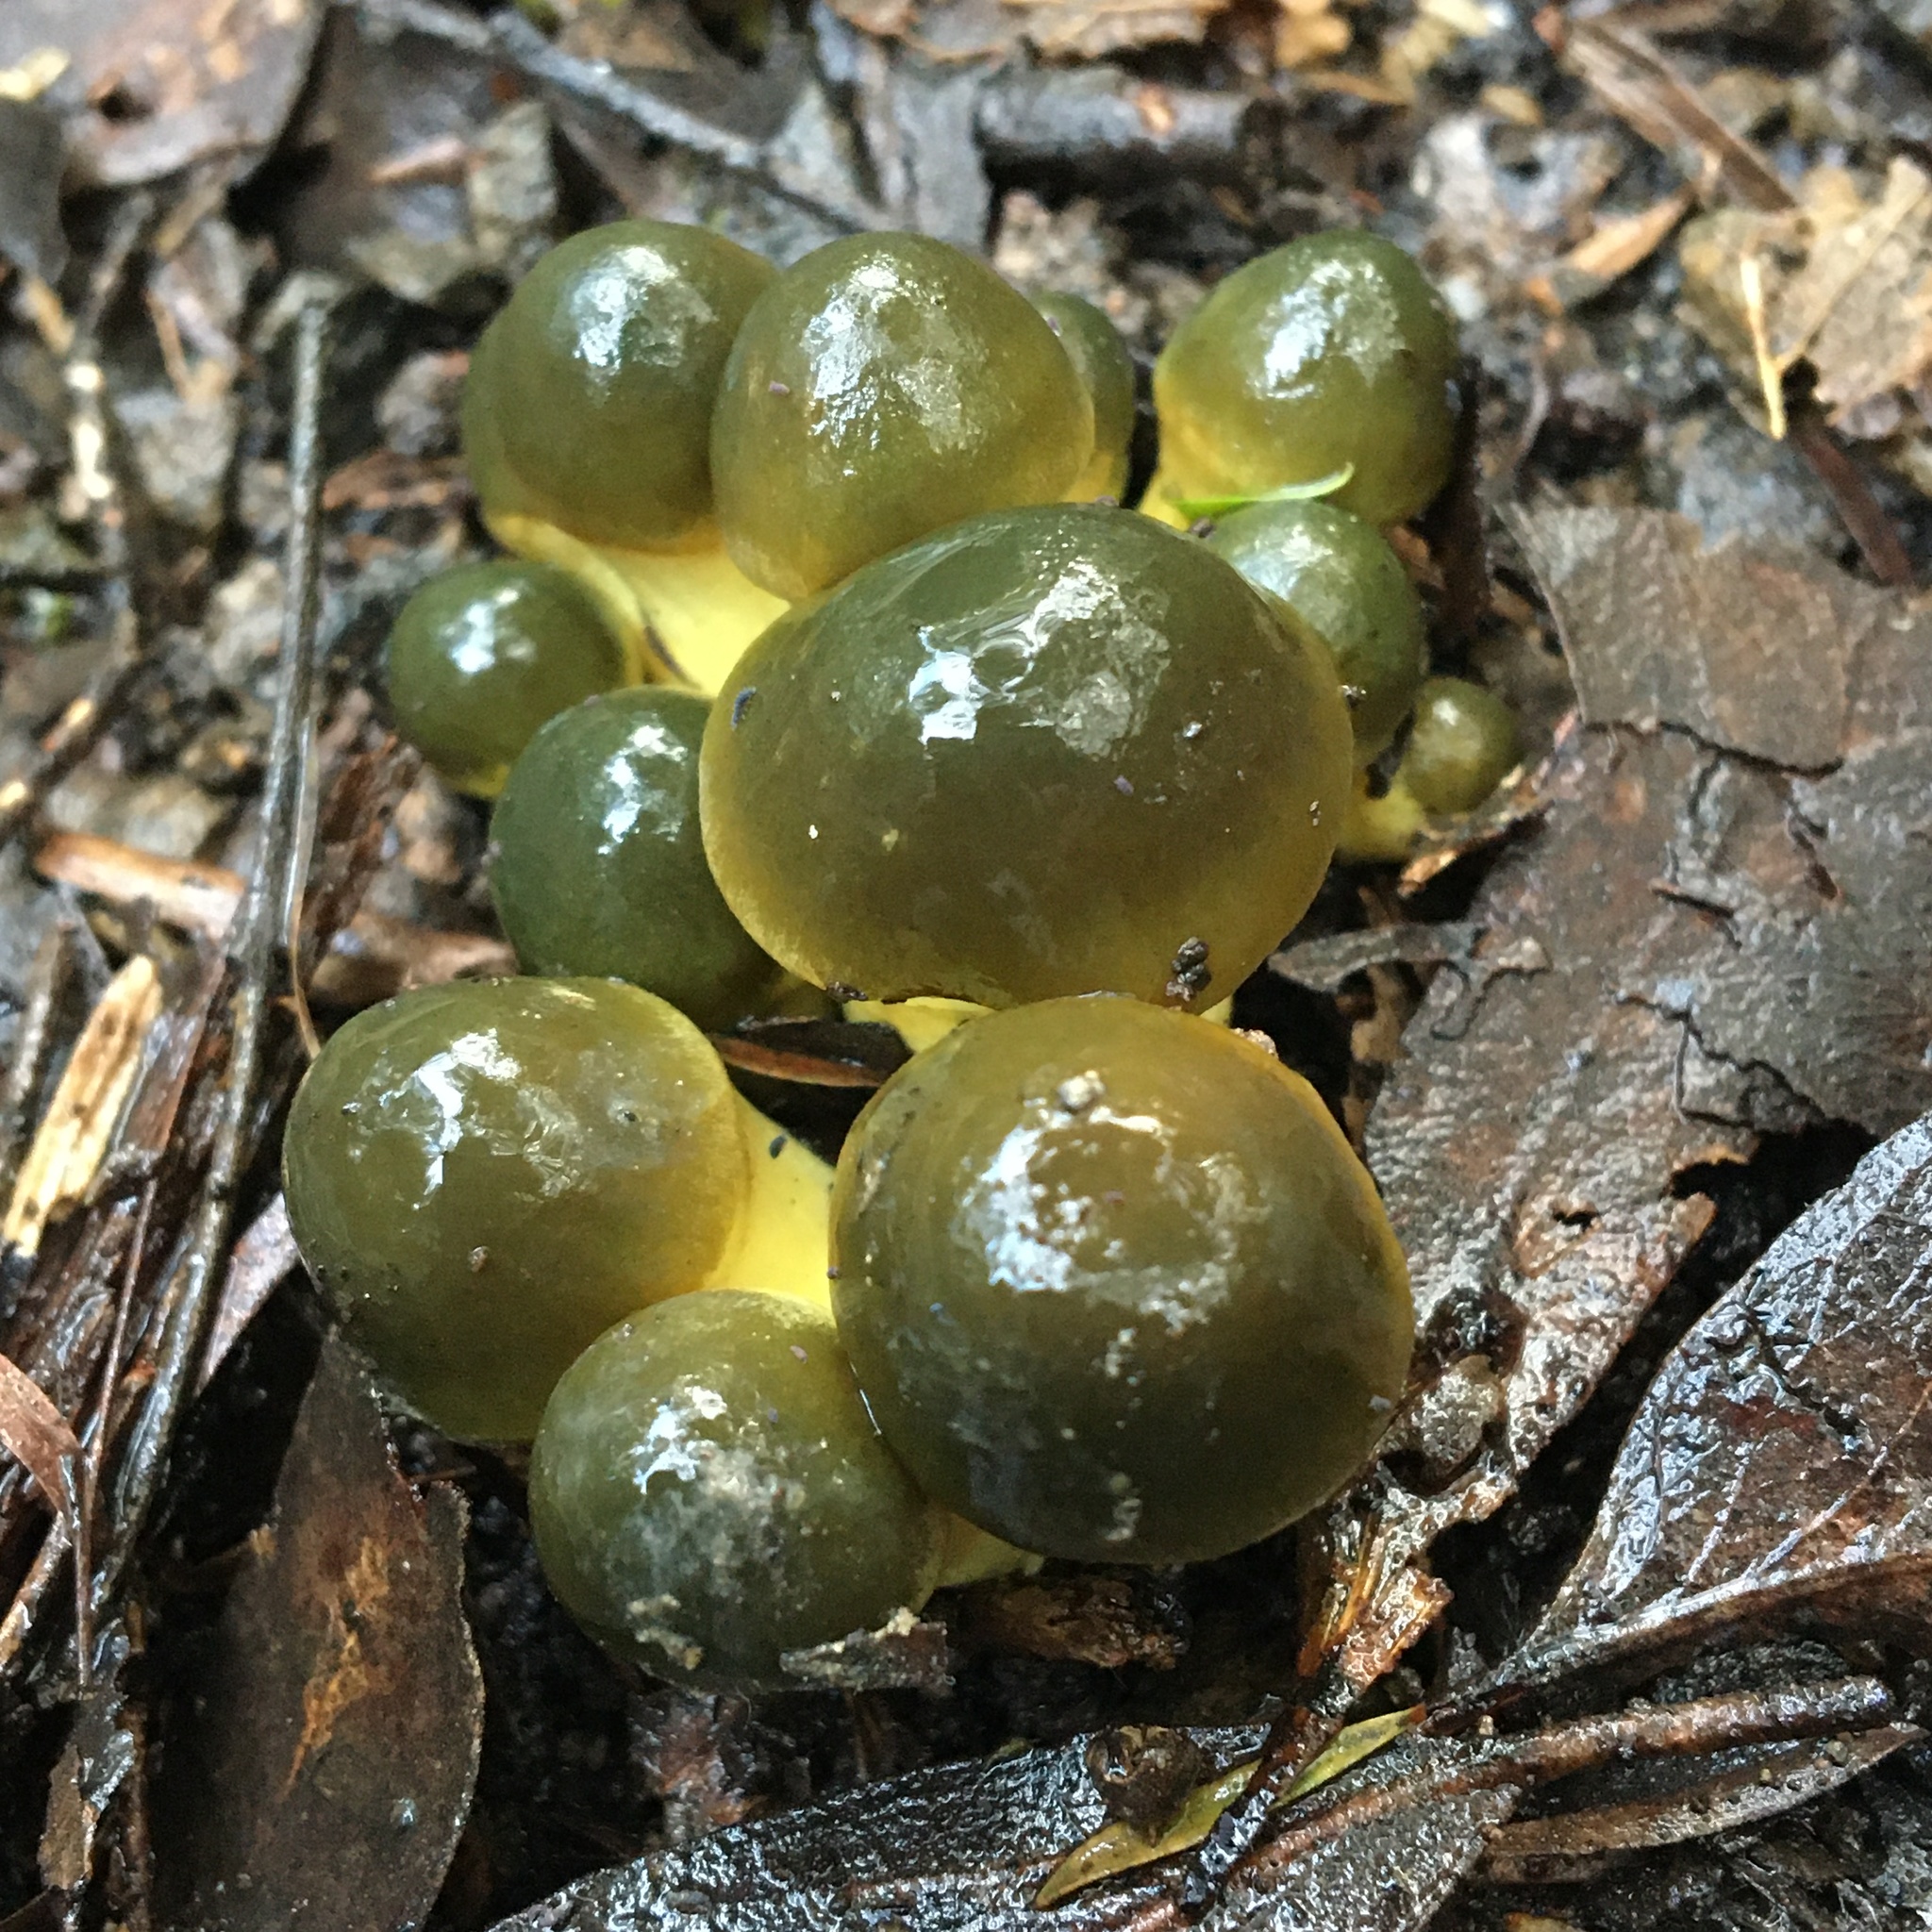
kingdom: Fungi
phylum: Basidiomycota
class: Agaricomycetes
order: Agaricales
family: Cortinariaceae
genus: Cortinarius
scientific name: Cortinarius austrovenetus
